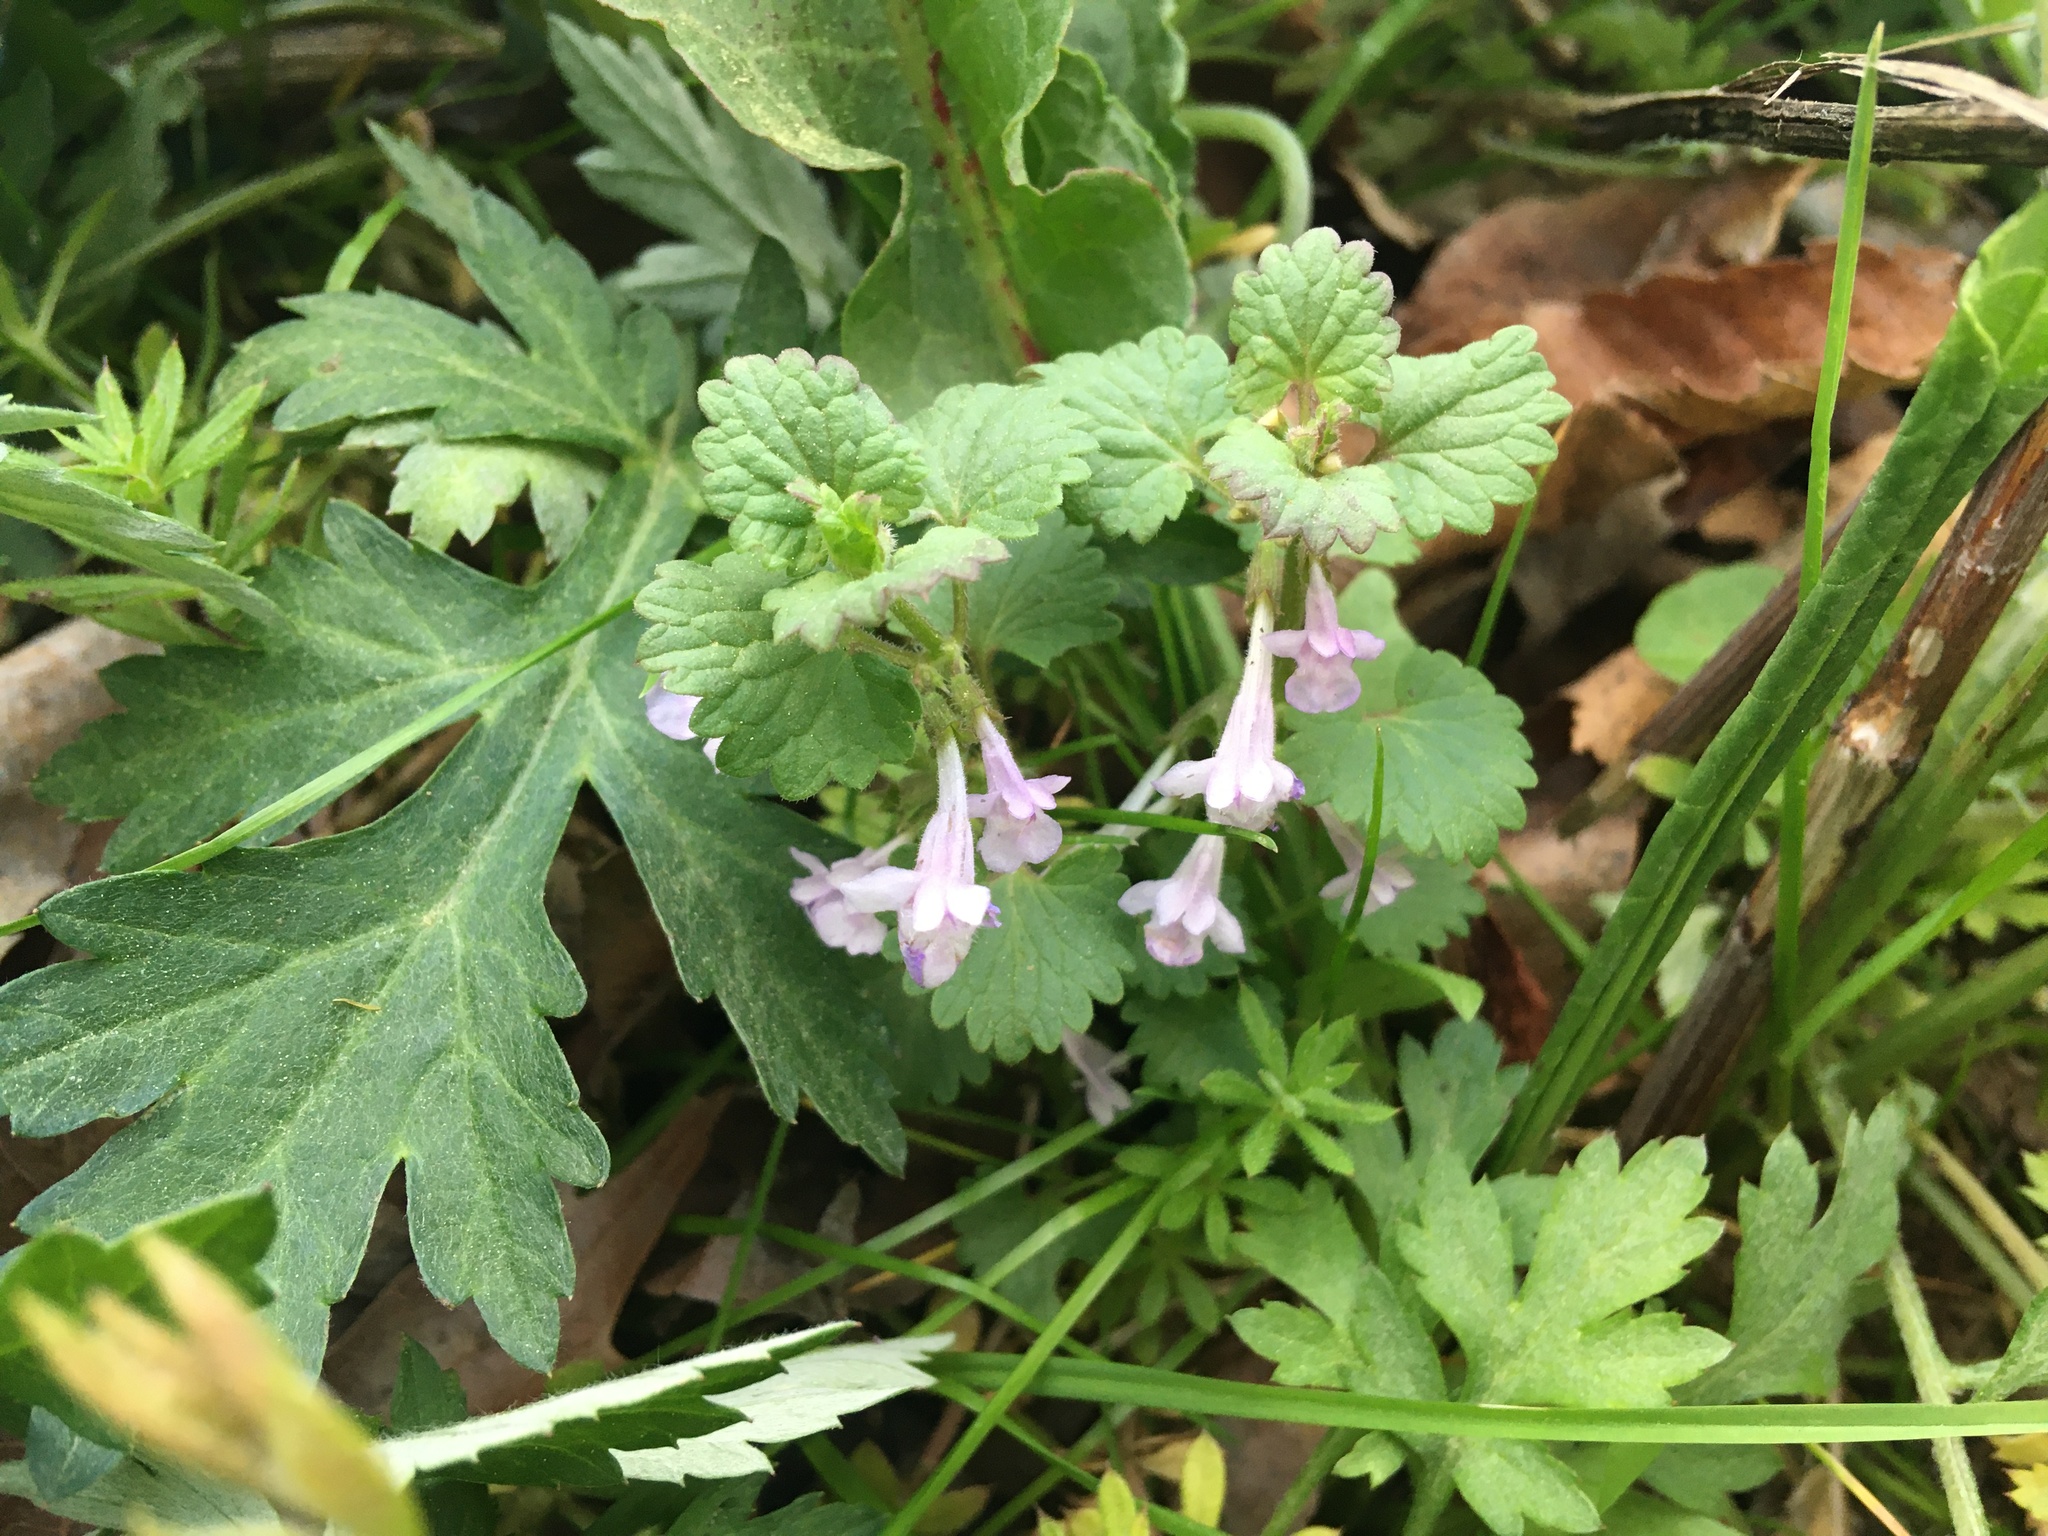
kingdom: Plantae
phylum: Tracheophyta
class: Magnoliopsida
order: Lamiales
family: Lamiaceae
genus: Glechoma
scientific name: Glechoma hederacea
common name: Ground ivy
